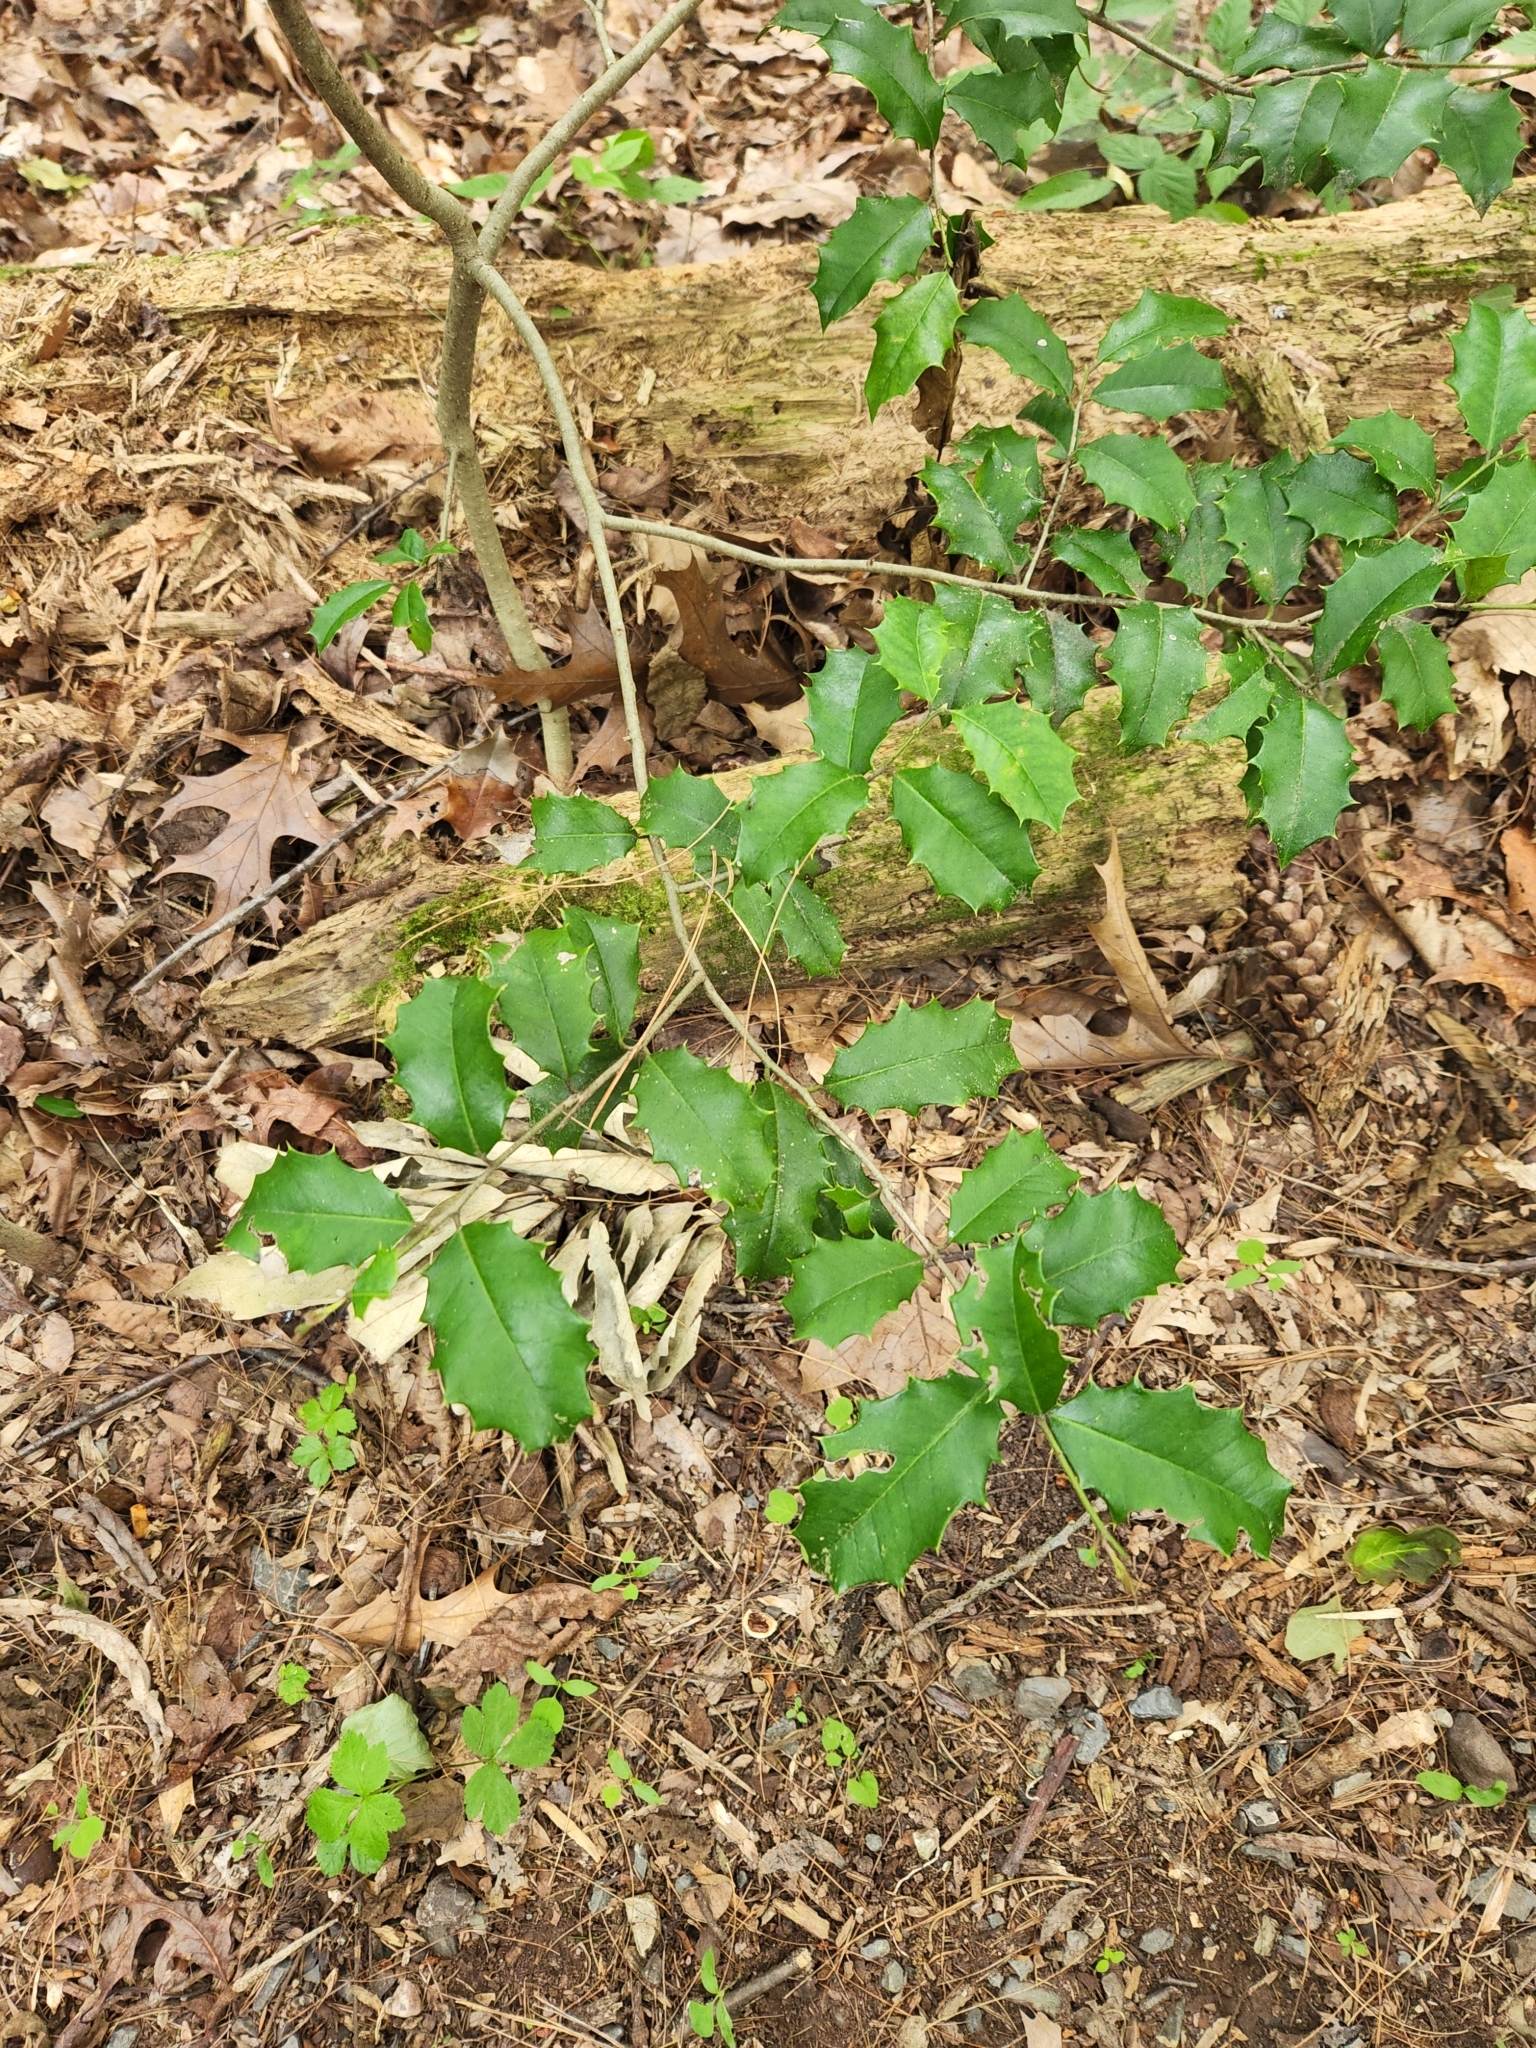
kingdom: Plantae
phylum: Tracheophyta
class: Magnoliopsida
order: Aquifoliales
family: Aquifoliaceae
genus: Ilex
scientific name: Ilex opaca
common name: American holly
